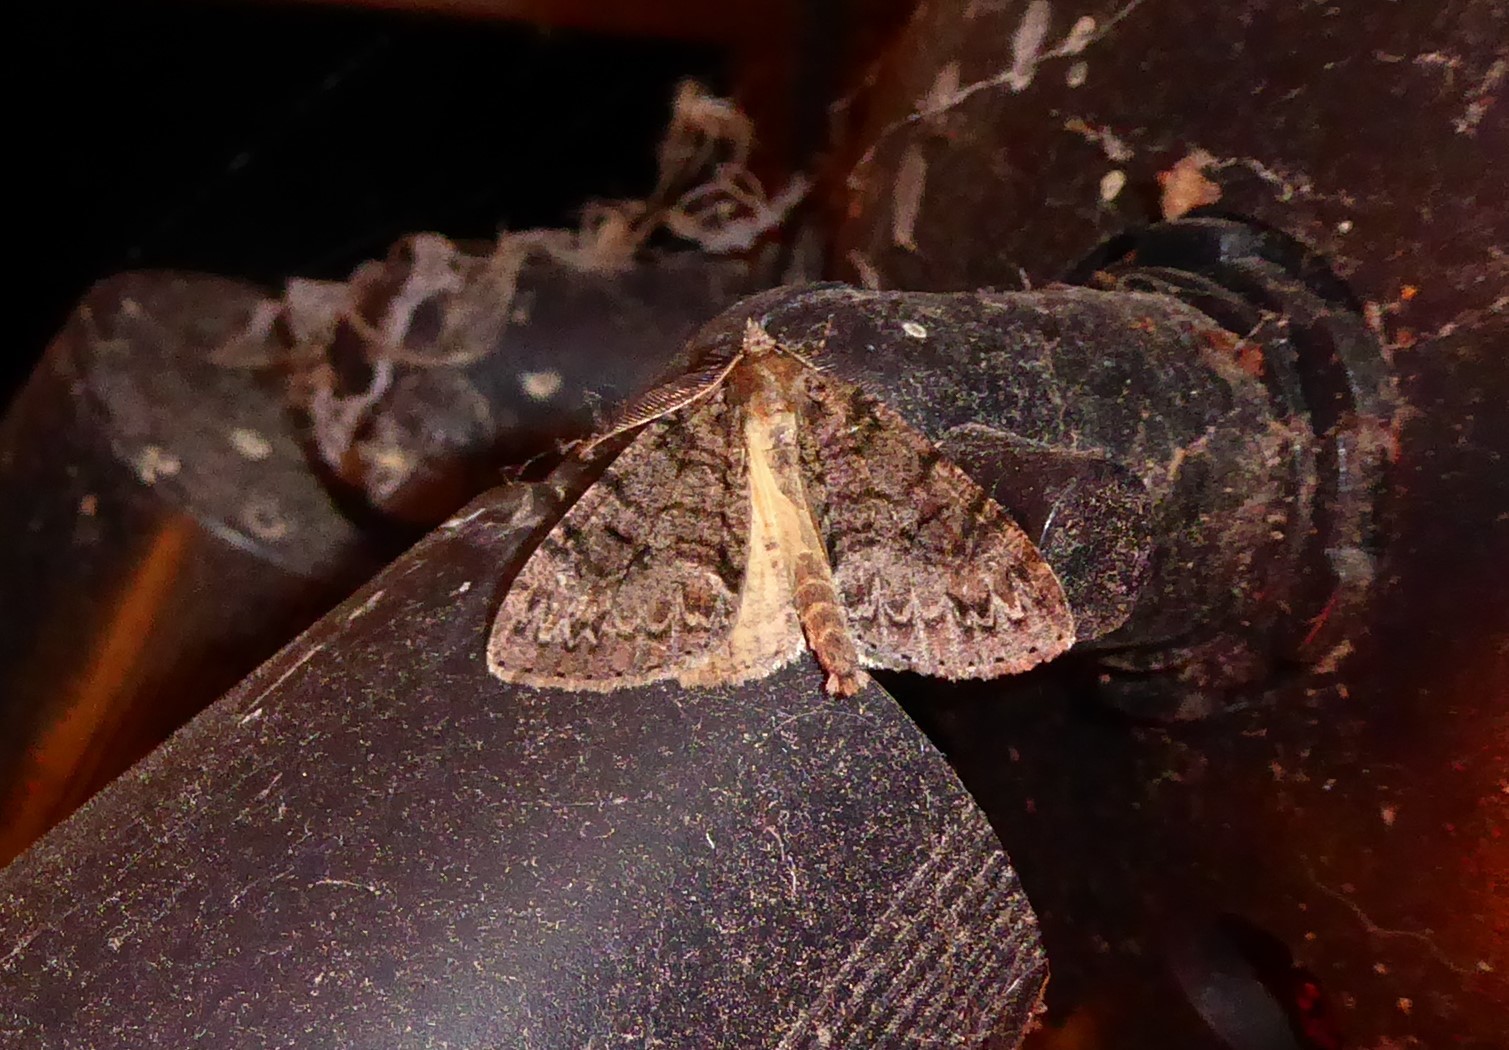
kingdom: Animalia
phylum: Arthropoda
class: Insecta
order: Lepidoptera
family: Geometridae
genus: Pseudocoremia
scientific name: Pseudocoremia suavis
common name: Common forest looper
